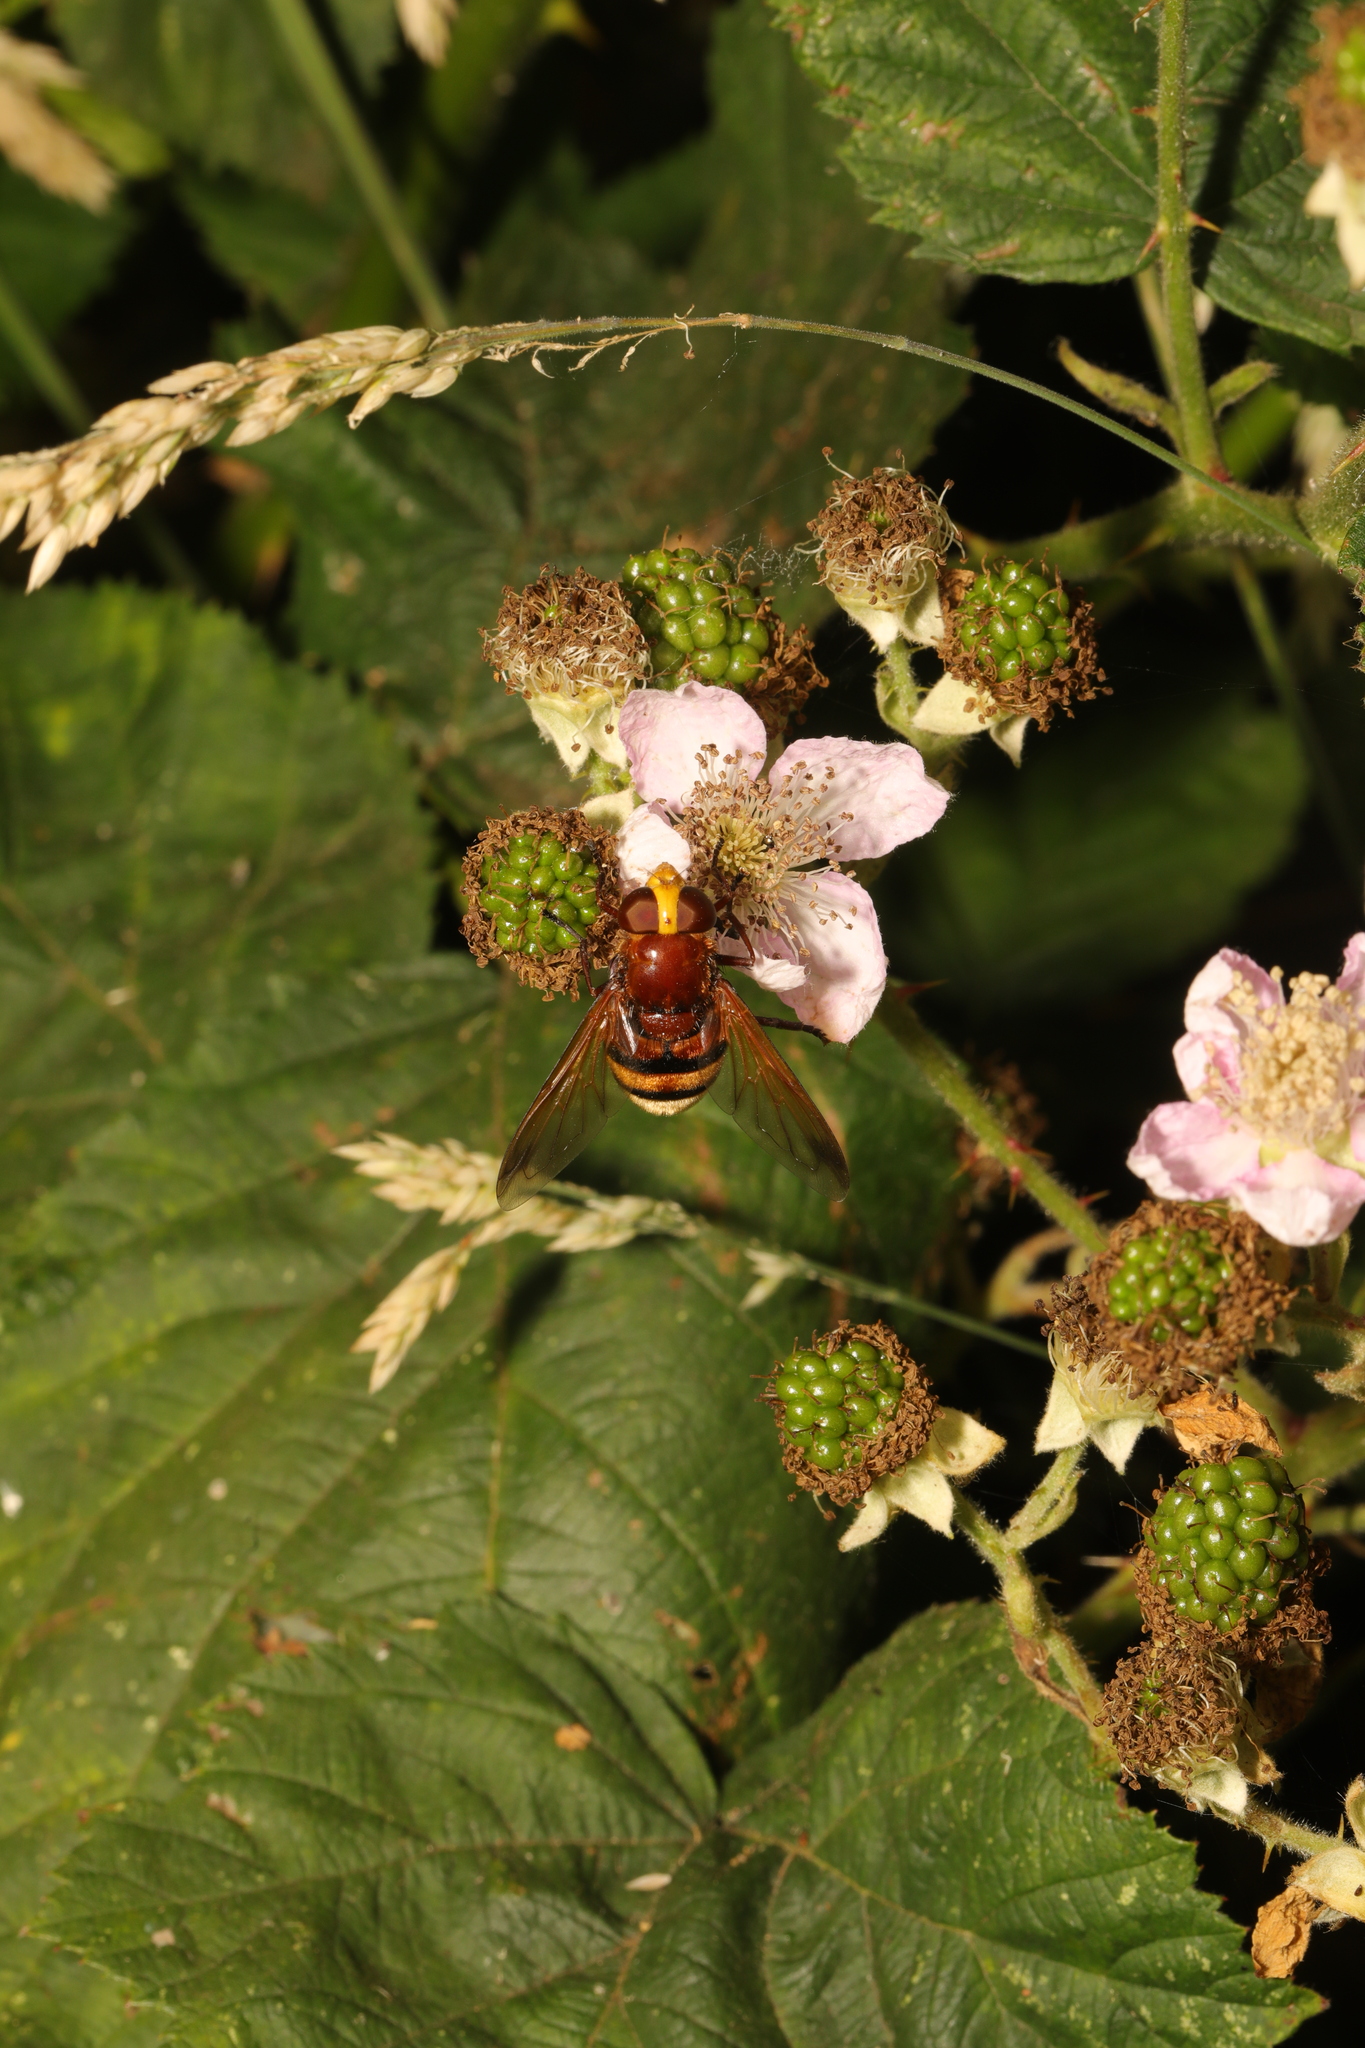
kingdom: Animalia
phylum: Arthropoda
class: Insecta
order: Diptera
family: Syrphidae
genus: Volucella
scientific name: Volucella zonaria
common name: Hornet hoverfly
